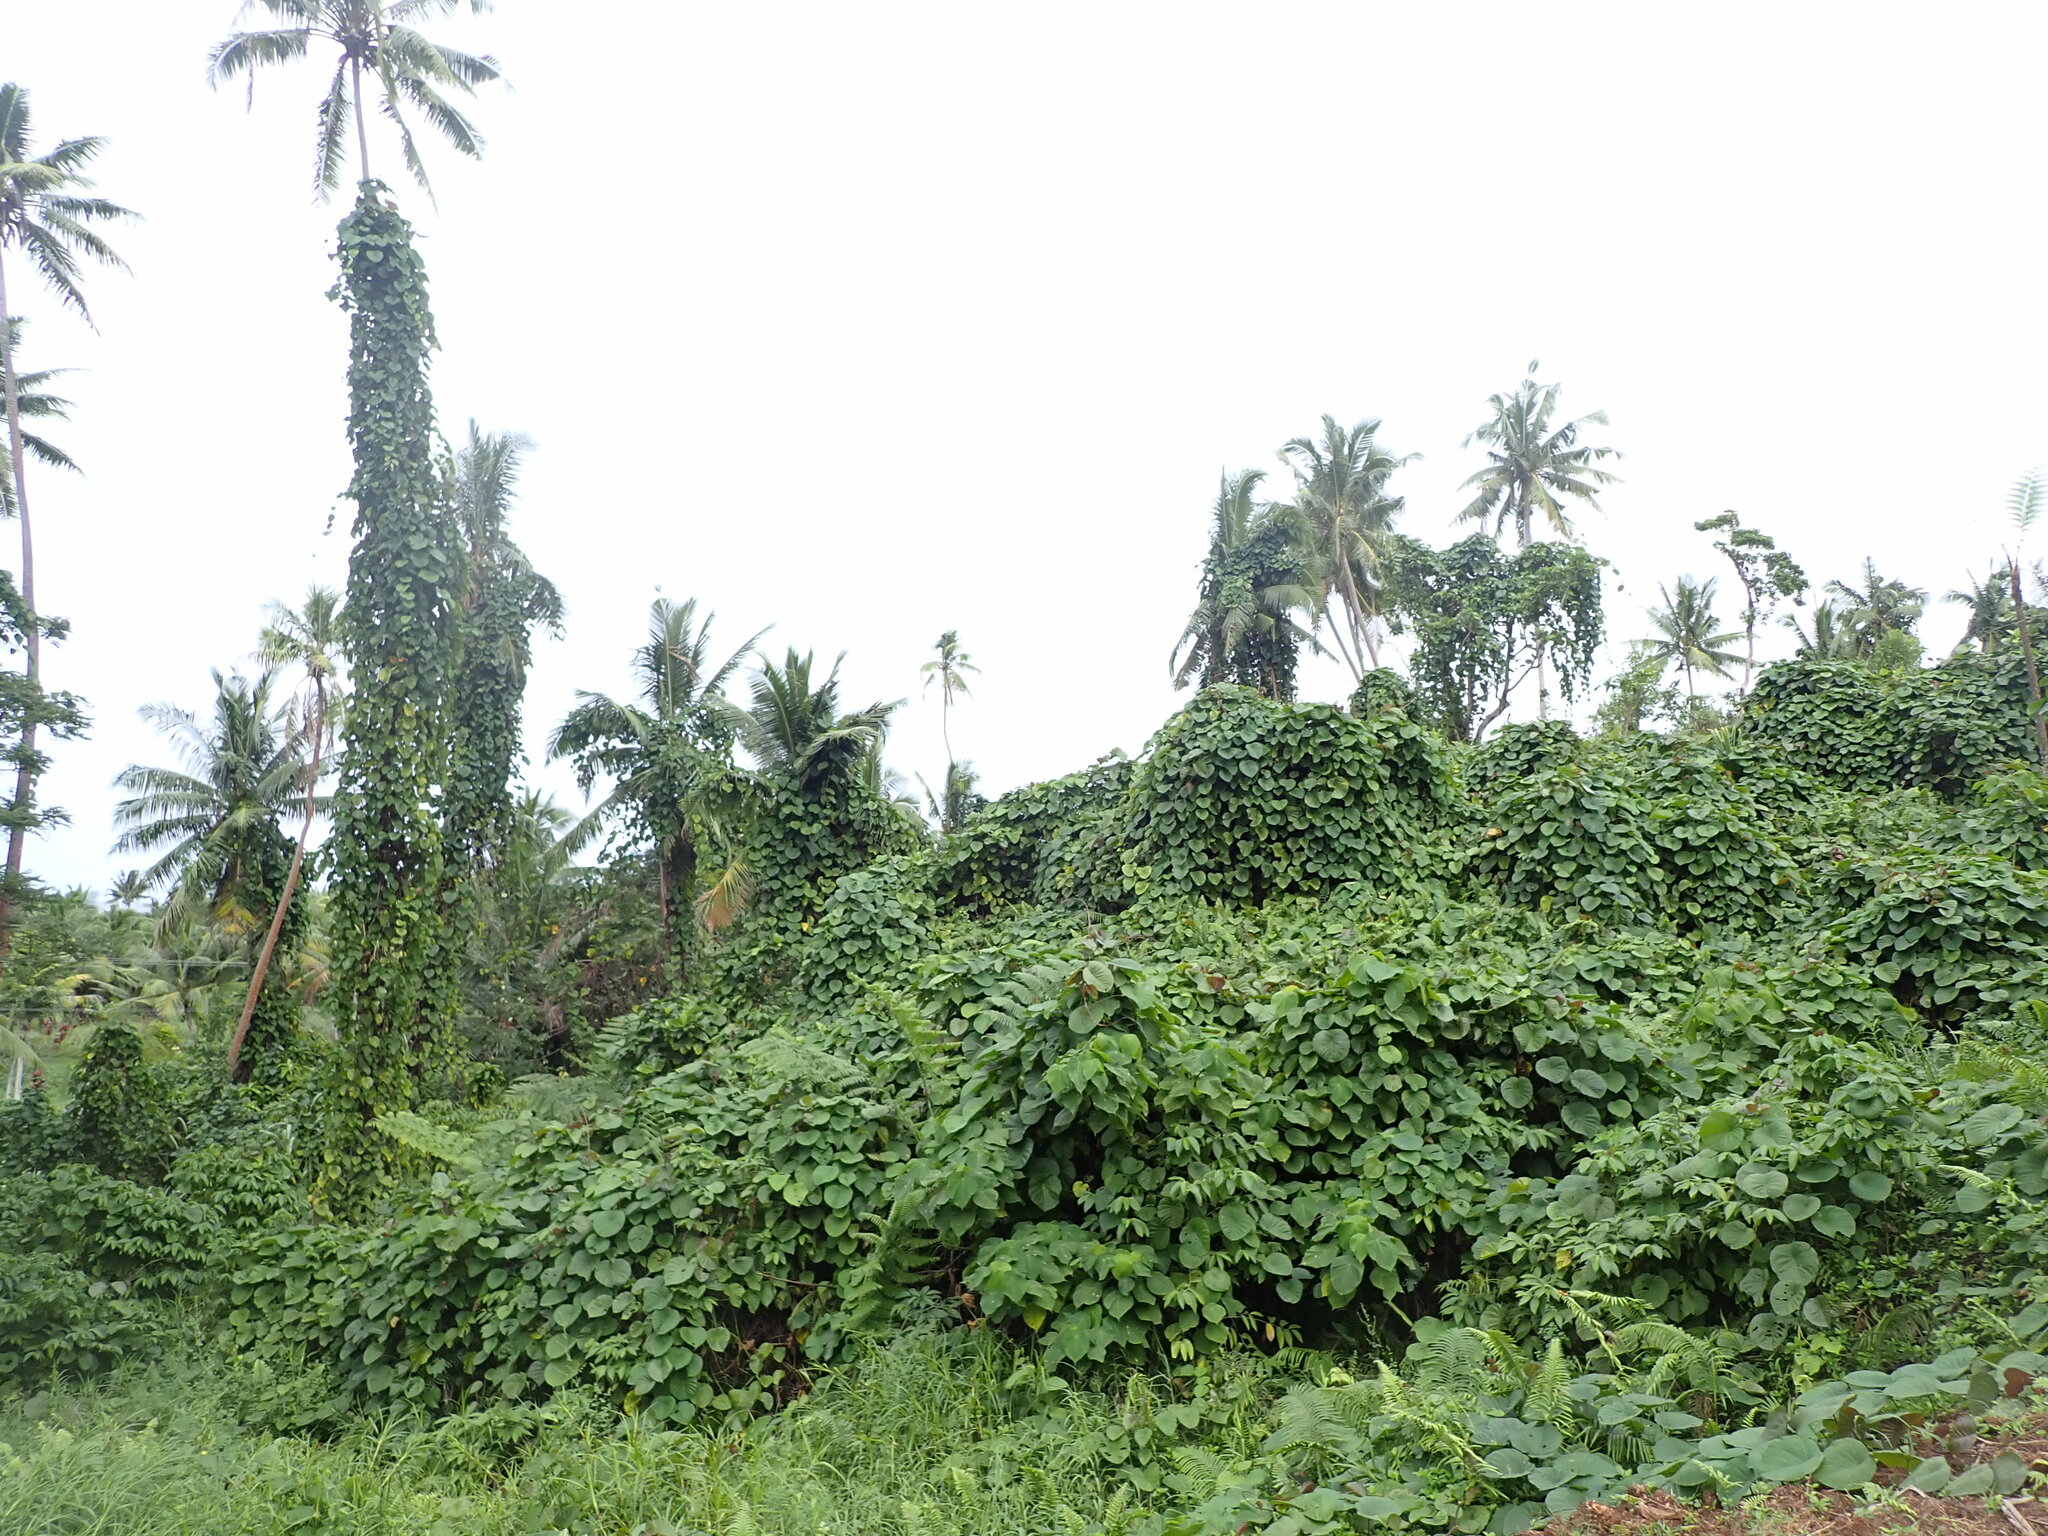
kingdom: Plantae
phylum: Tracheophyta
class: Magnoliopsida
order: Solanales
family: Convolvulaceae
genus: Decalobanthus
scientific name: Decalobanthus peltatus
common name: Merremia
